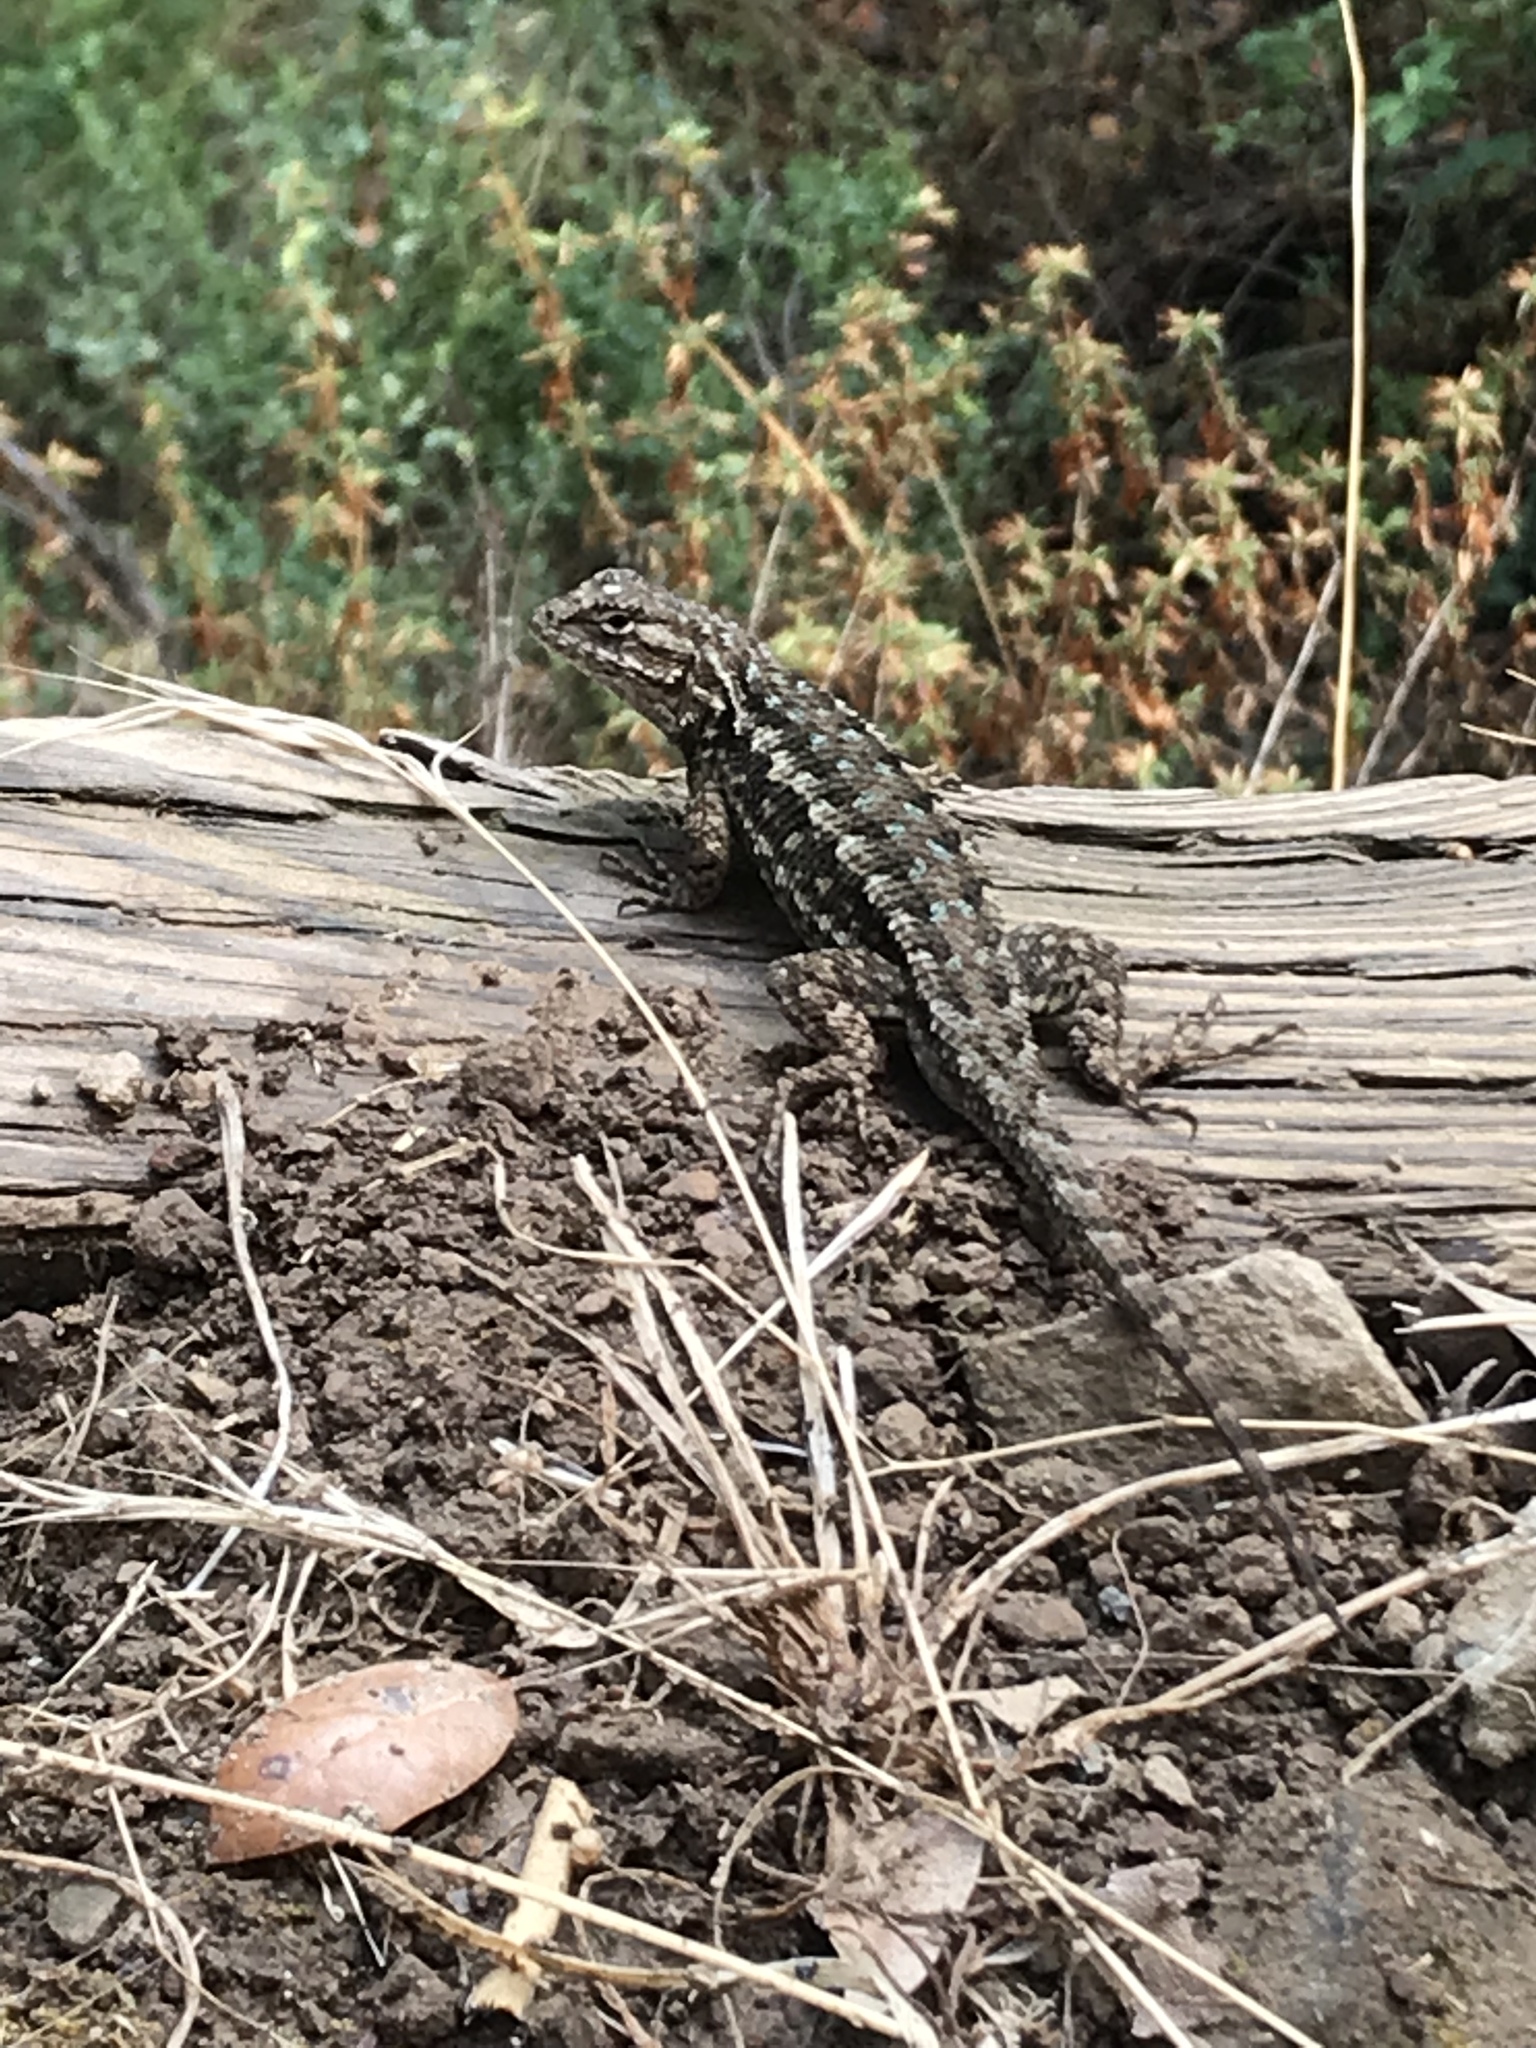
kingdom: Animalia
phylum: Chordata
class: Squamata
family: Phrynosomatidae
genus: Sceloporus
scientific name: Sceloporus occidentalis
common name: Western fence lizard
